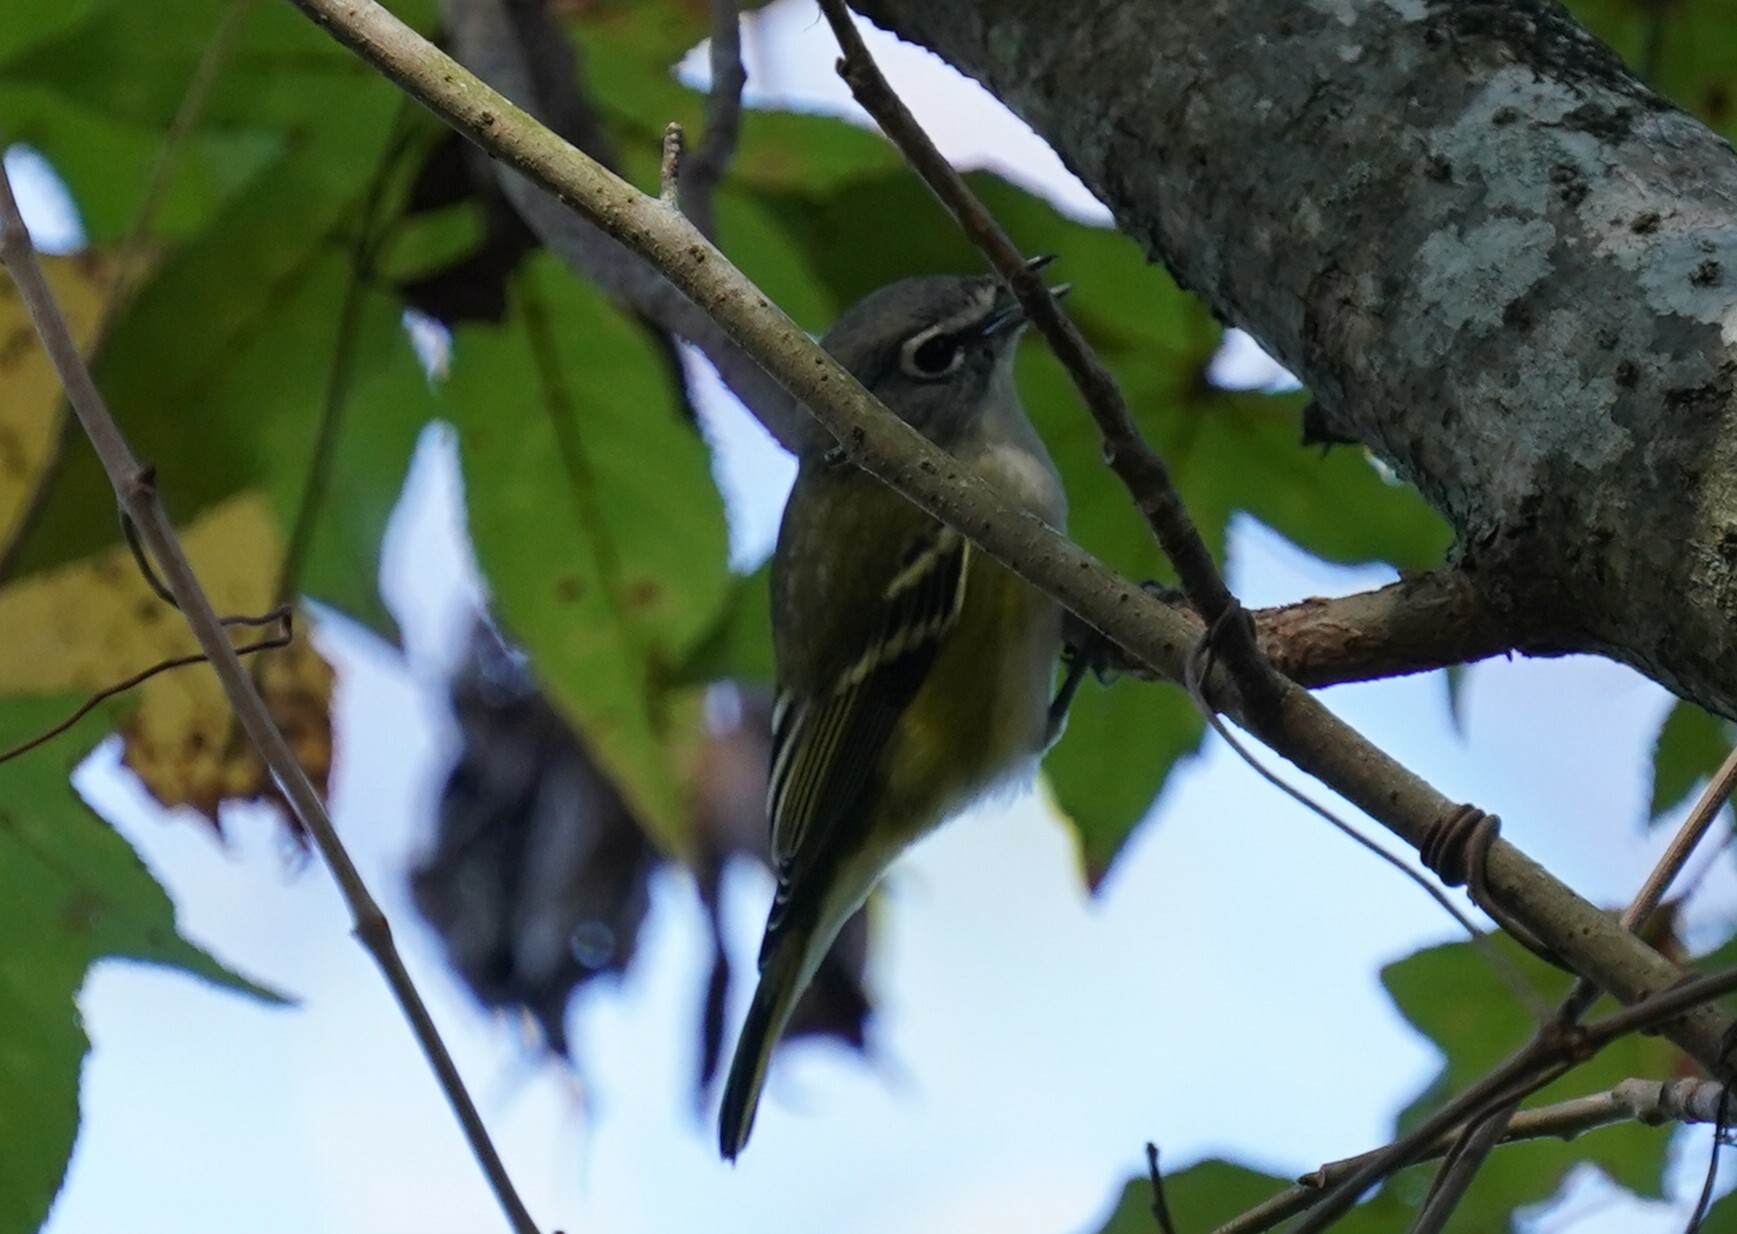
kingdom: Animalia
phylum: Chordata
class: Aves
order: Passeriformes
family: Vireonidae
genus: Vireo
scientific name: Vireo solitarius
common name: Blue-headed vireo
